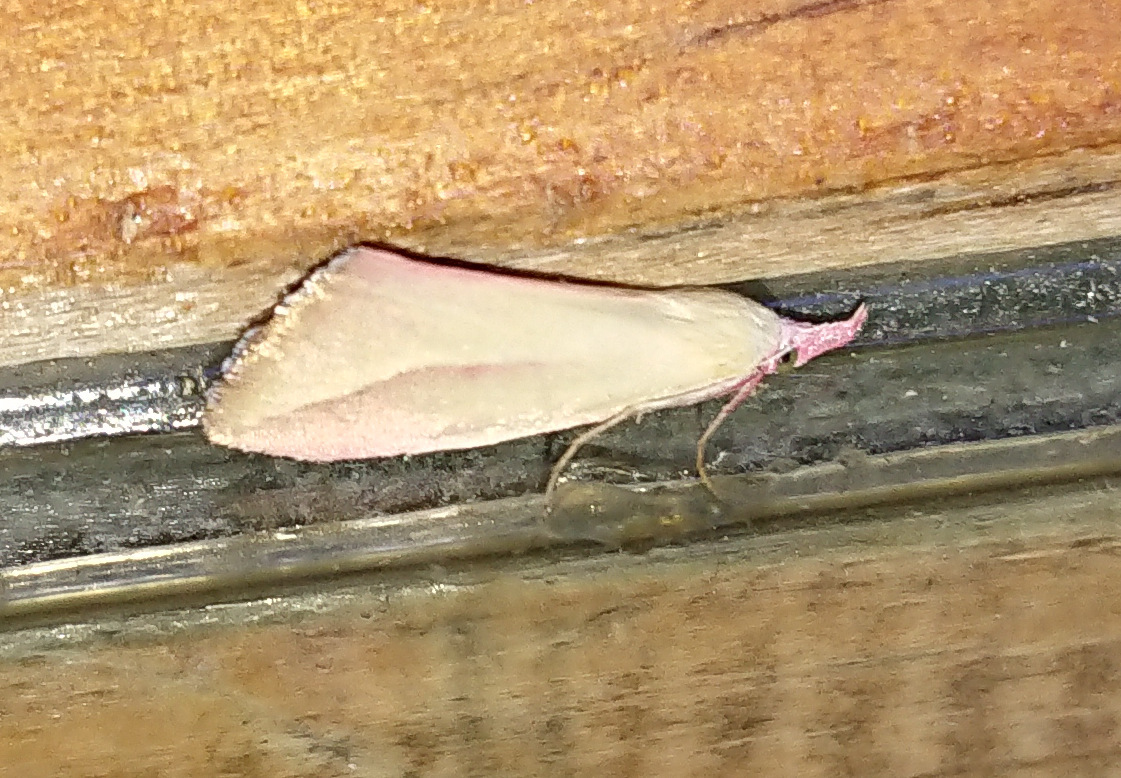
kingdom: Animalia
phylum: Arthropoda
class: Insecta
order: Lepidoptera
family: Erebidae
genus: Phytometra
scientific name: Phytometra obliqualis
